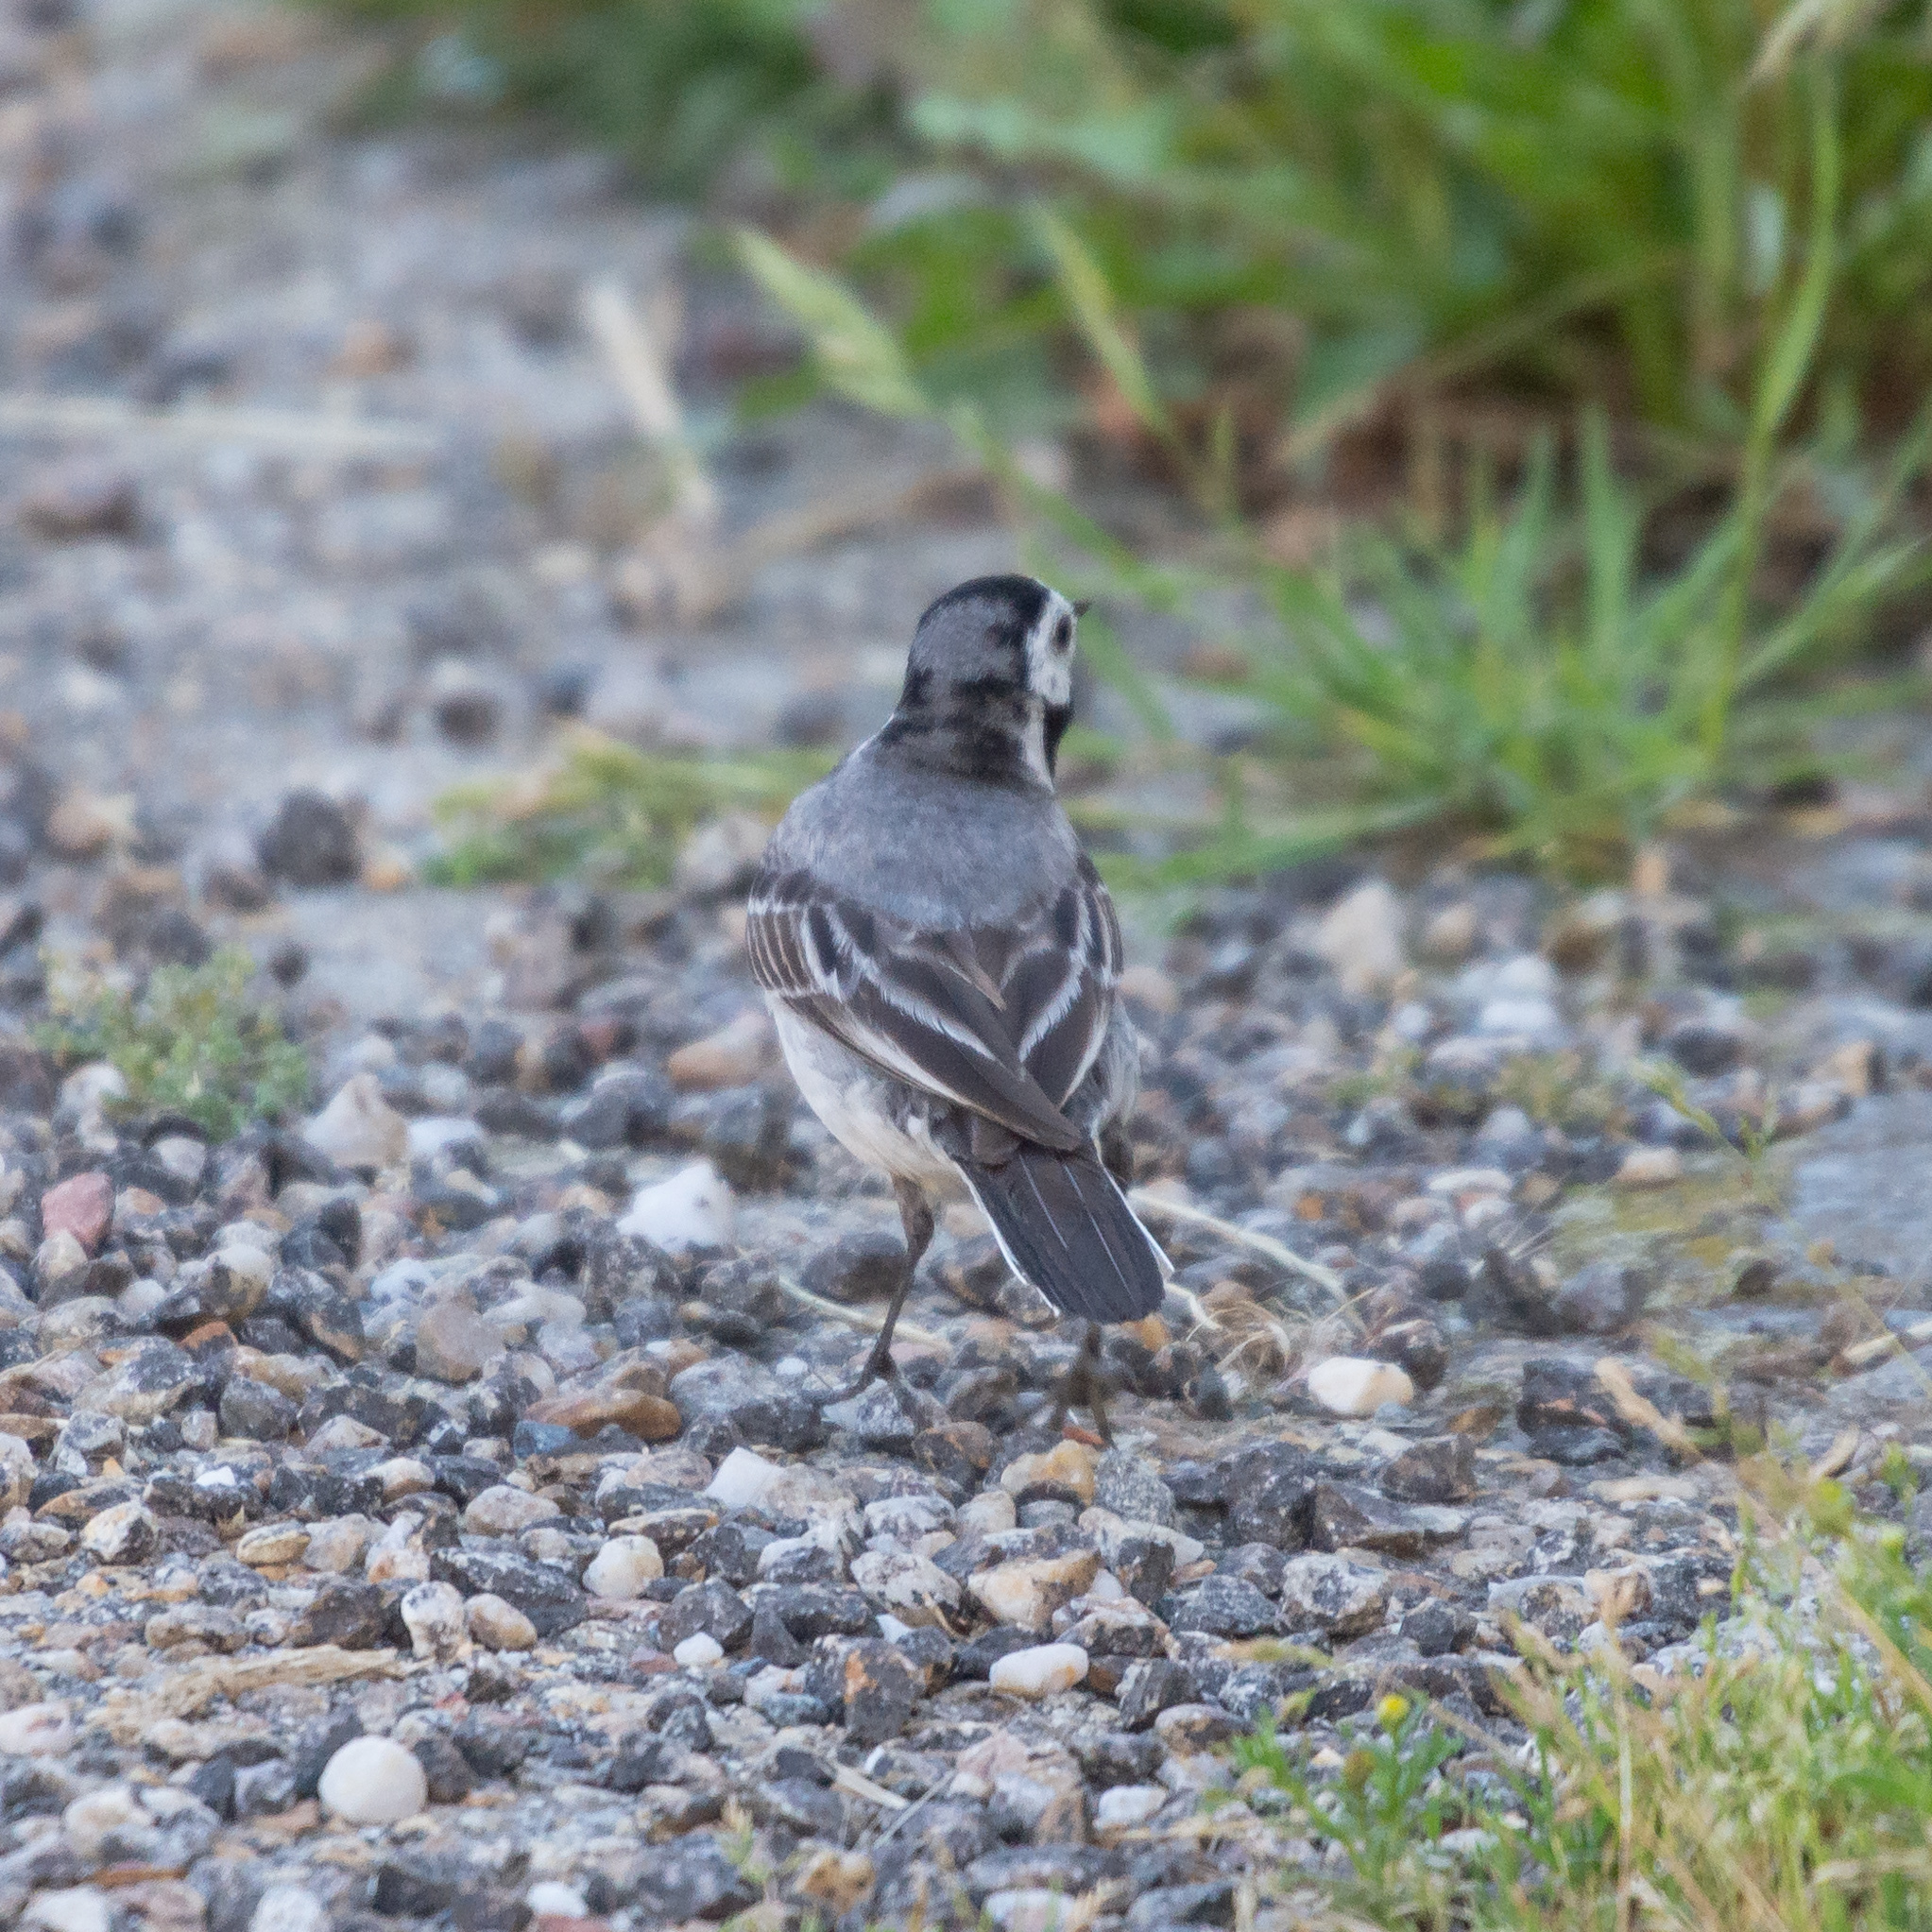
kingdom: Animalia
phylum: Chordata
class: Aves
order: Passeriformes
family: Motacillidae
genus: Motacilla
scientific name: Motacilla alba
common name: White wagtail
